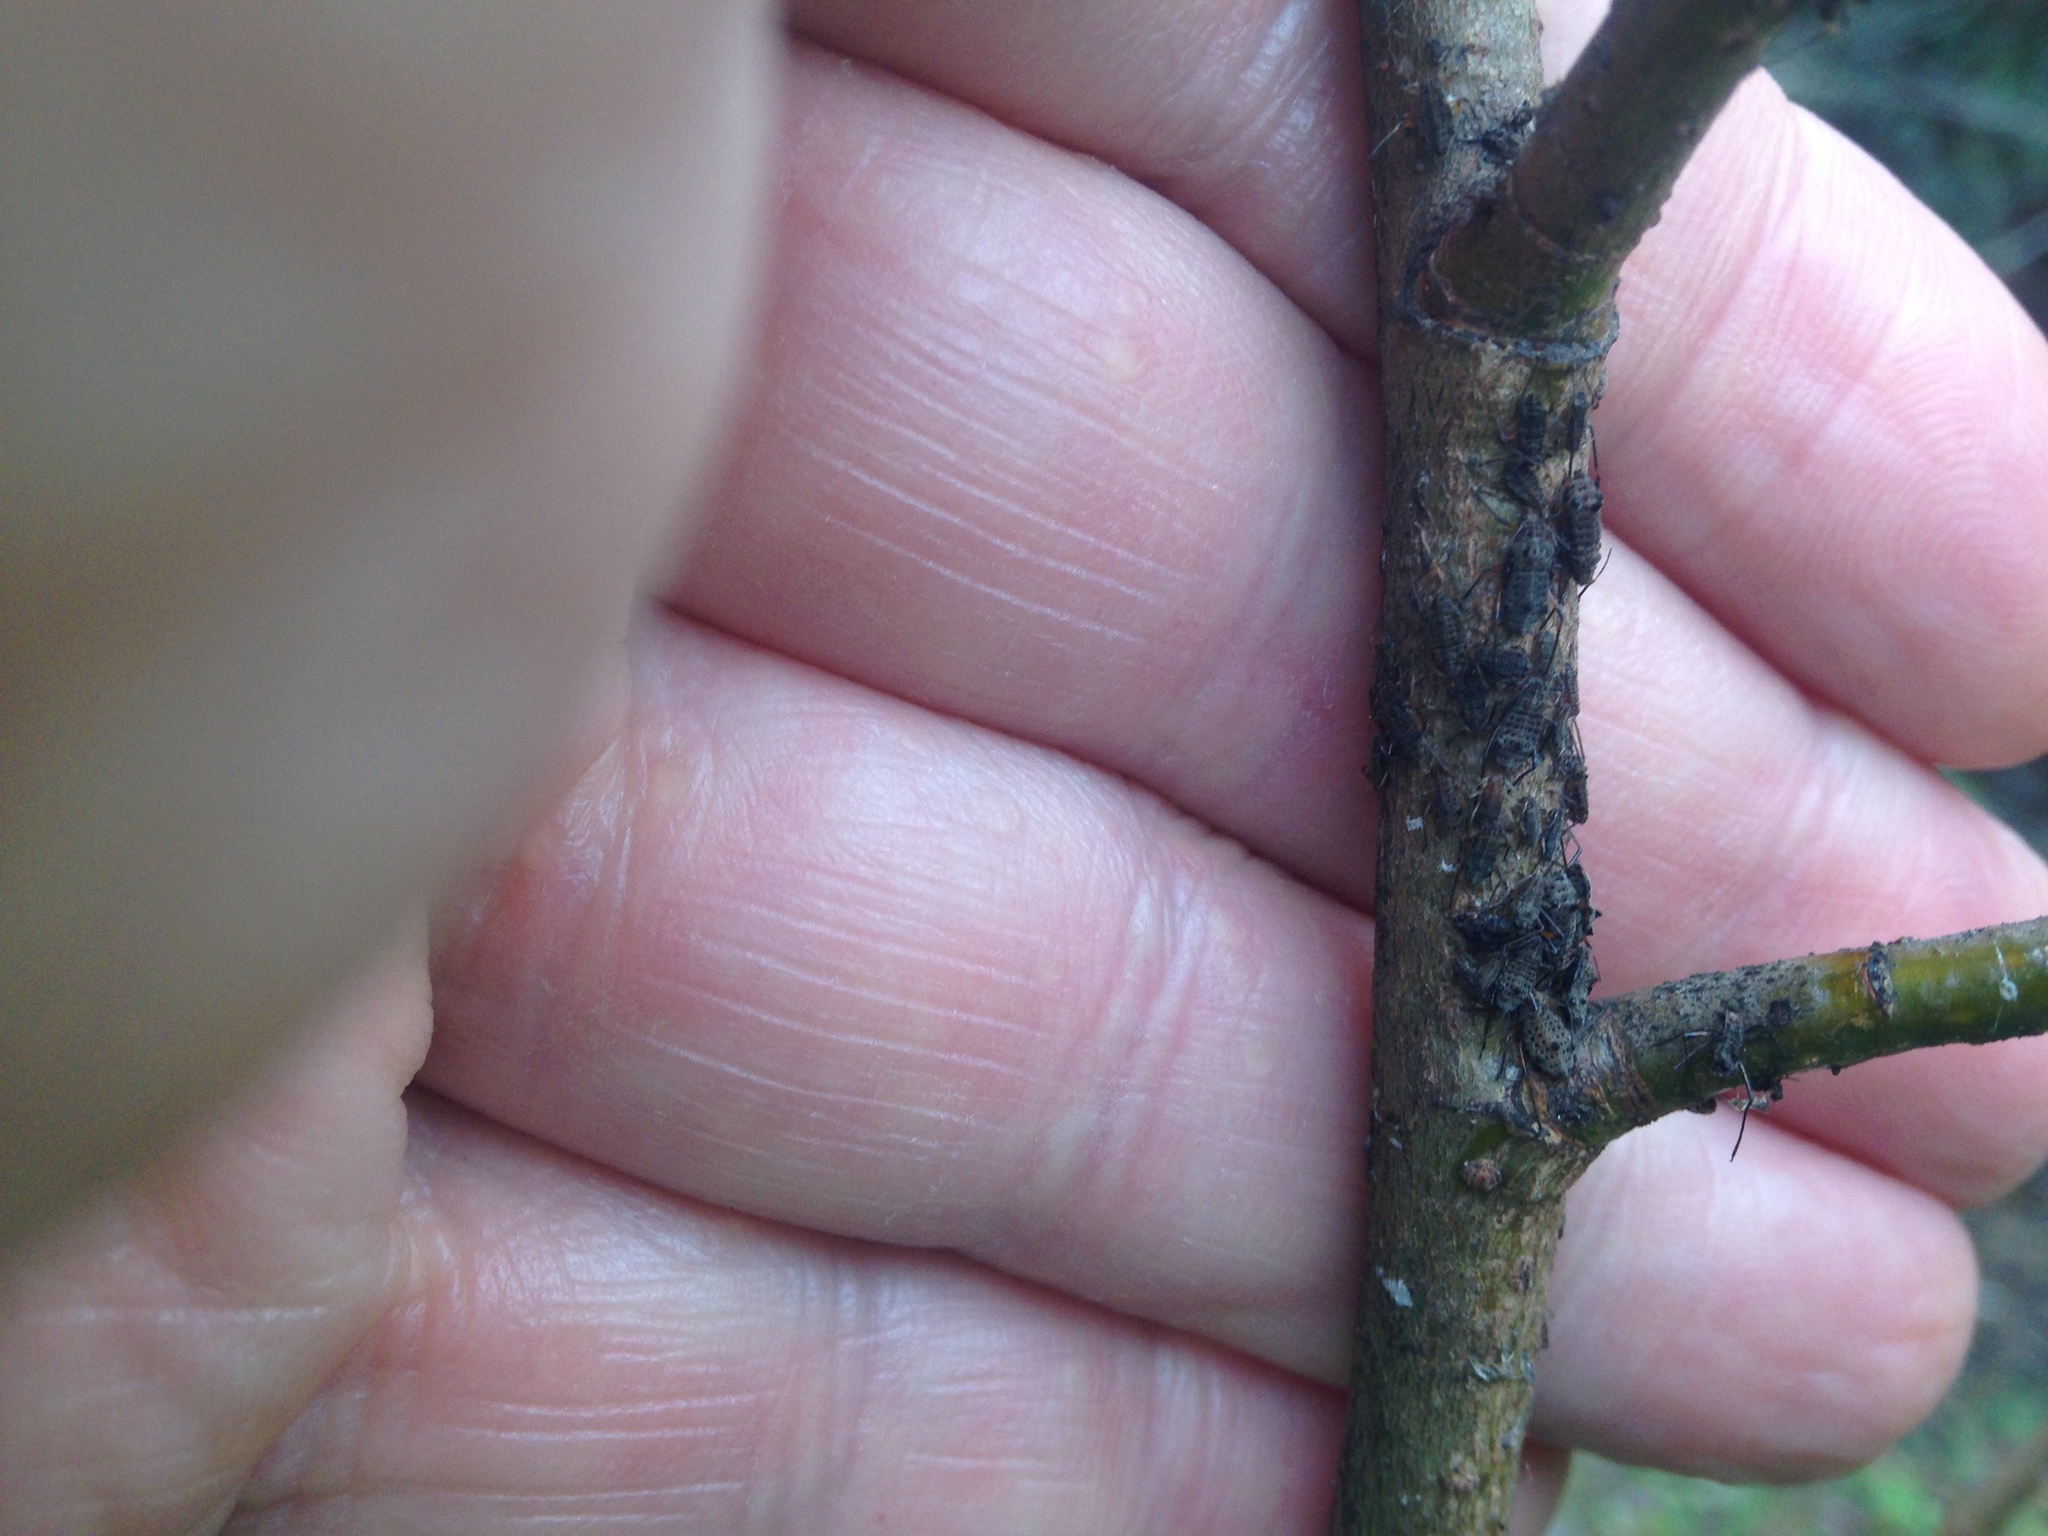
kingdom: Animalia
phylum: Arthropoda
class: Insecta
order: Hemiptera
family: Aphididae
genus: Tuberolachnus
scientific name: Tuberolachnus salignus
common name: Giant willow aphid
